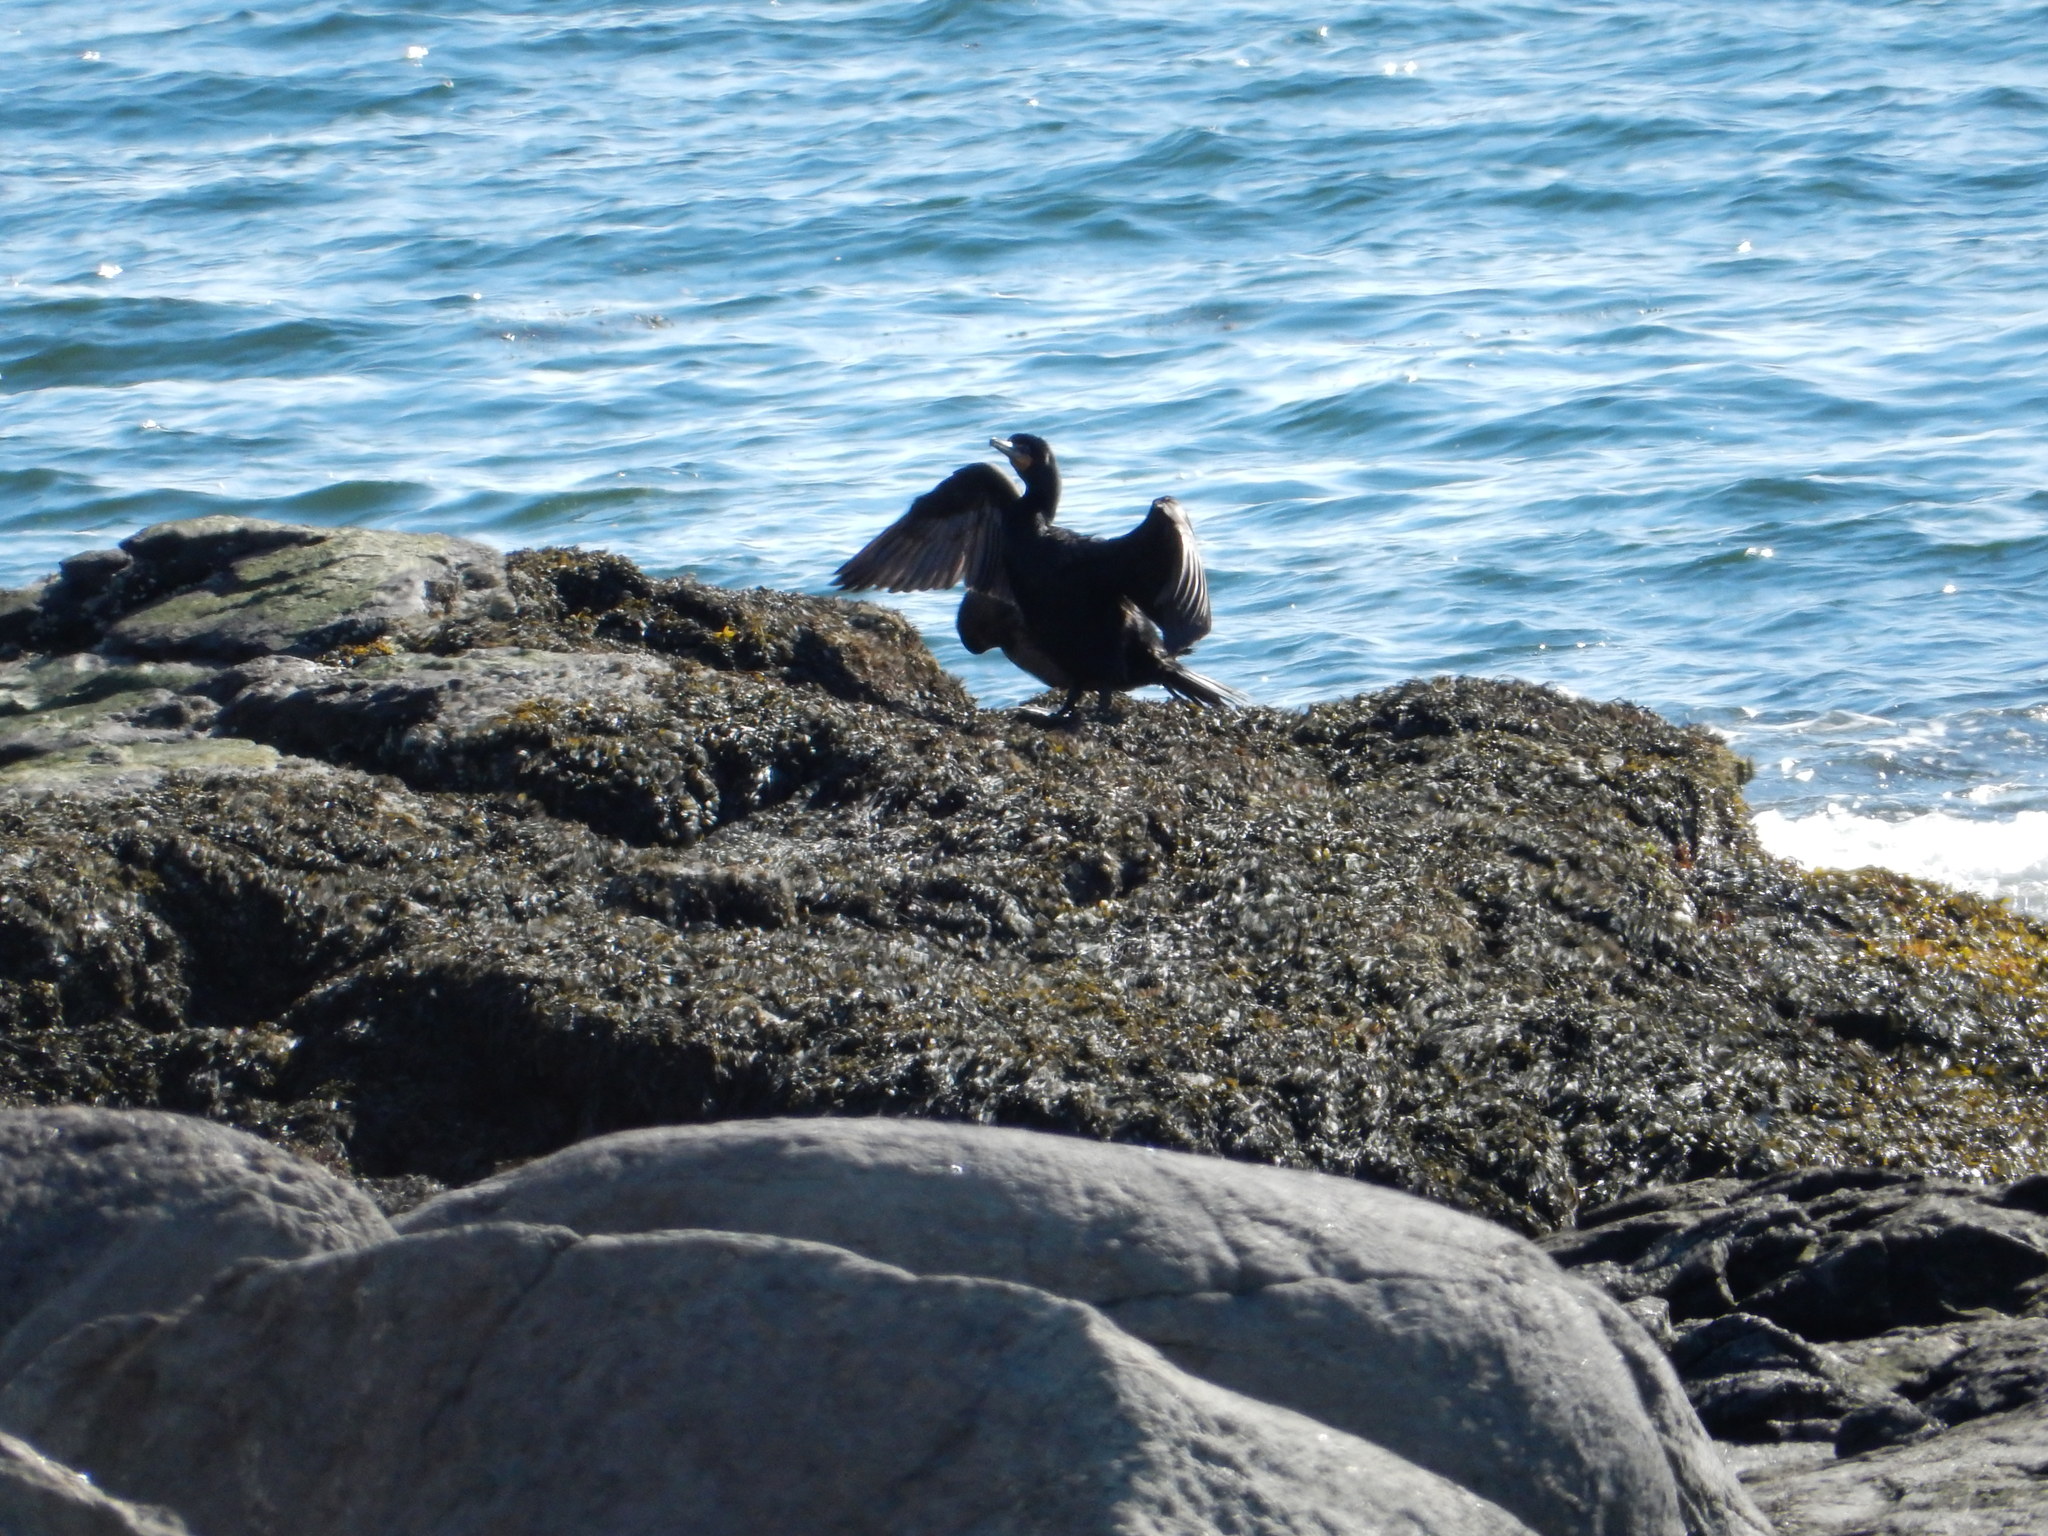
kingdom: Animalia
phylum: Chordata
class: Aves
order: Suliformes
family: Phalacrocoracidae
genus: Phalacrocorax
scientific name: Phalacrocorax auritus
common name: Double-crested cormorant
